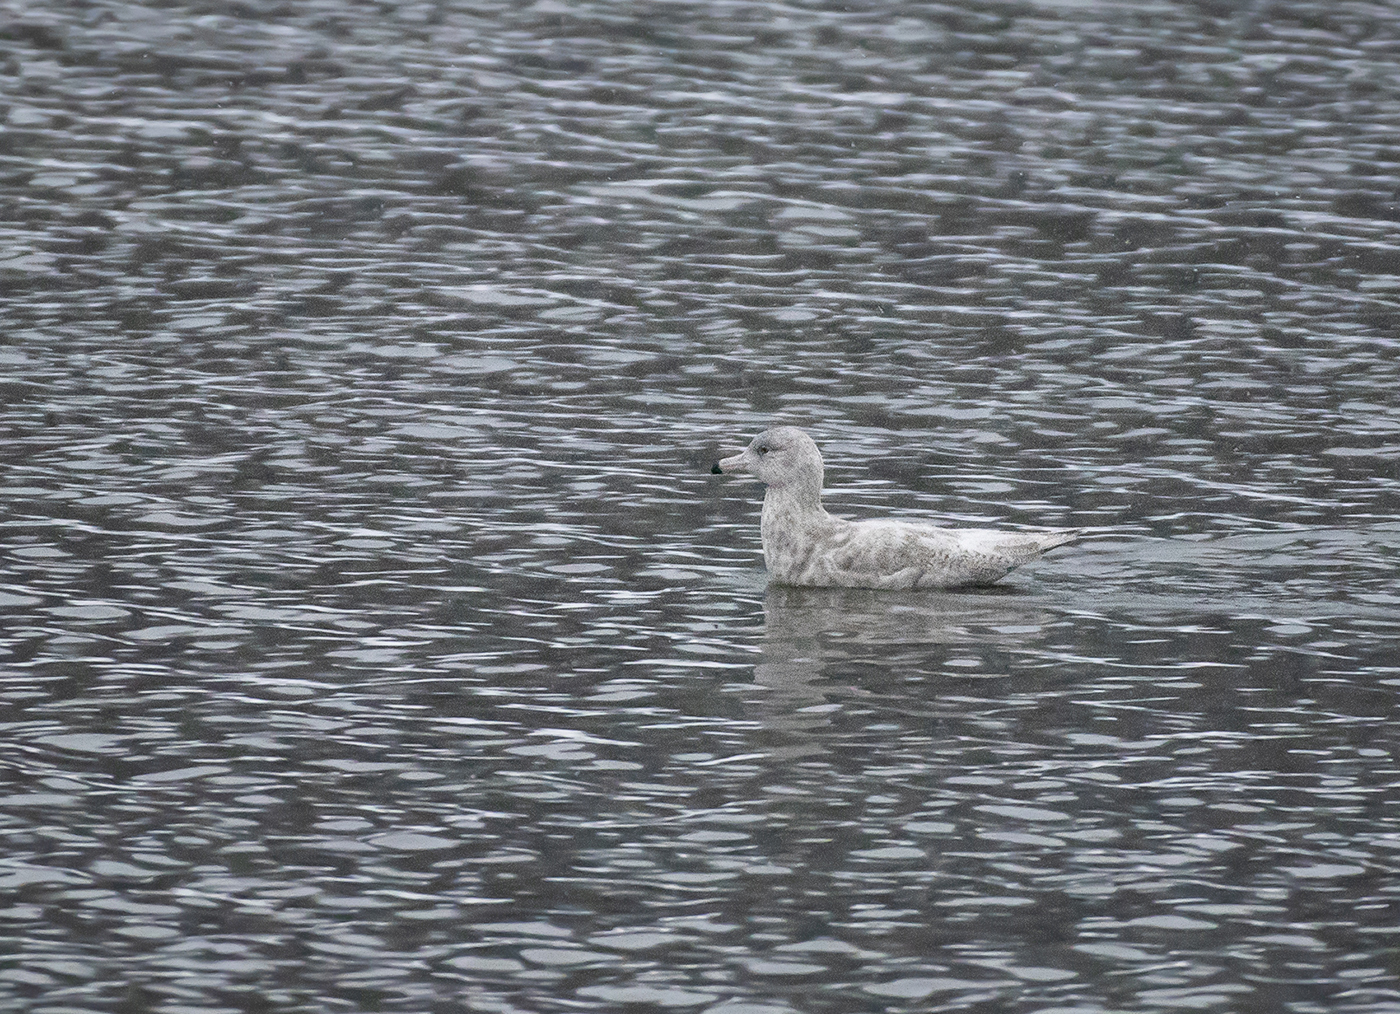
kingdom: Animalia
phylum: Chordata
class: Aves
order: Charadriiformes
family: Laridae
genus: Larus
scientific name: Larus hyperboreus
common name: Glaucous gull
